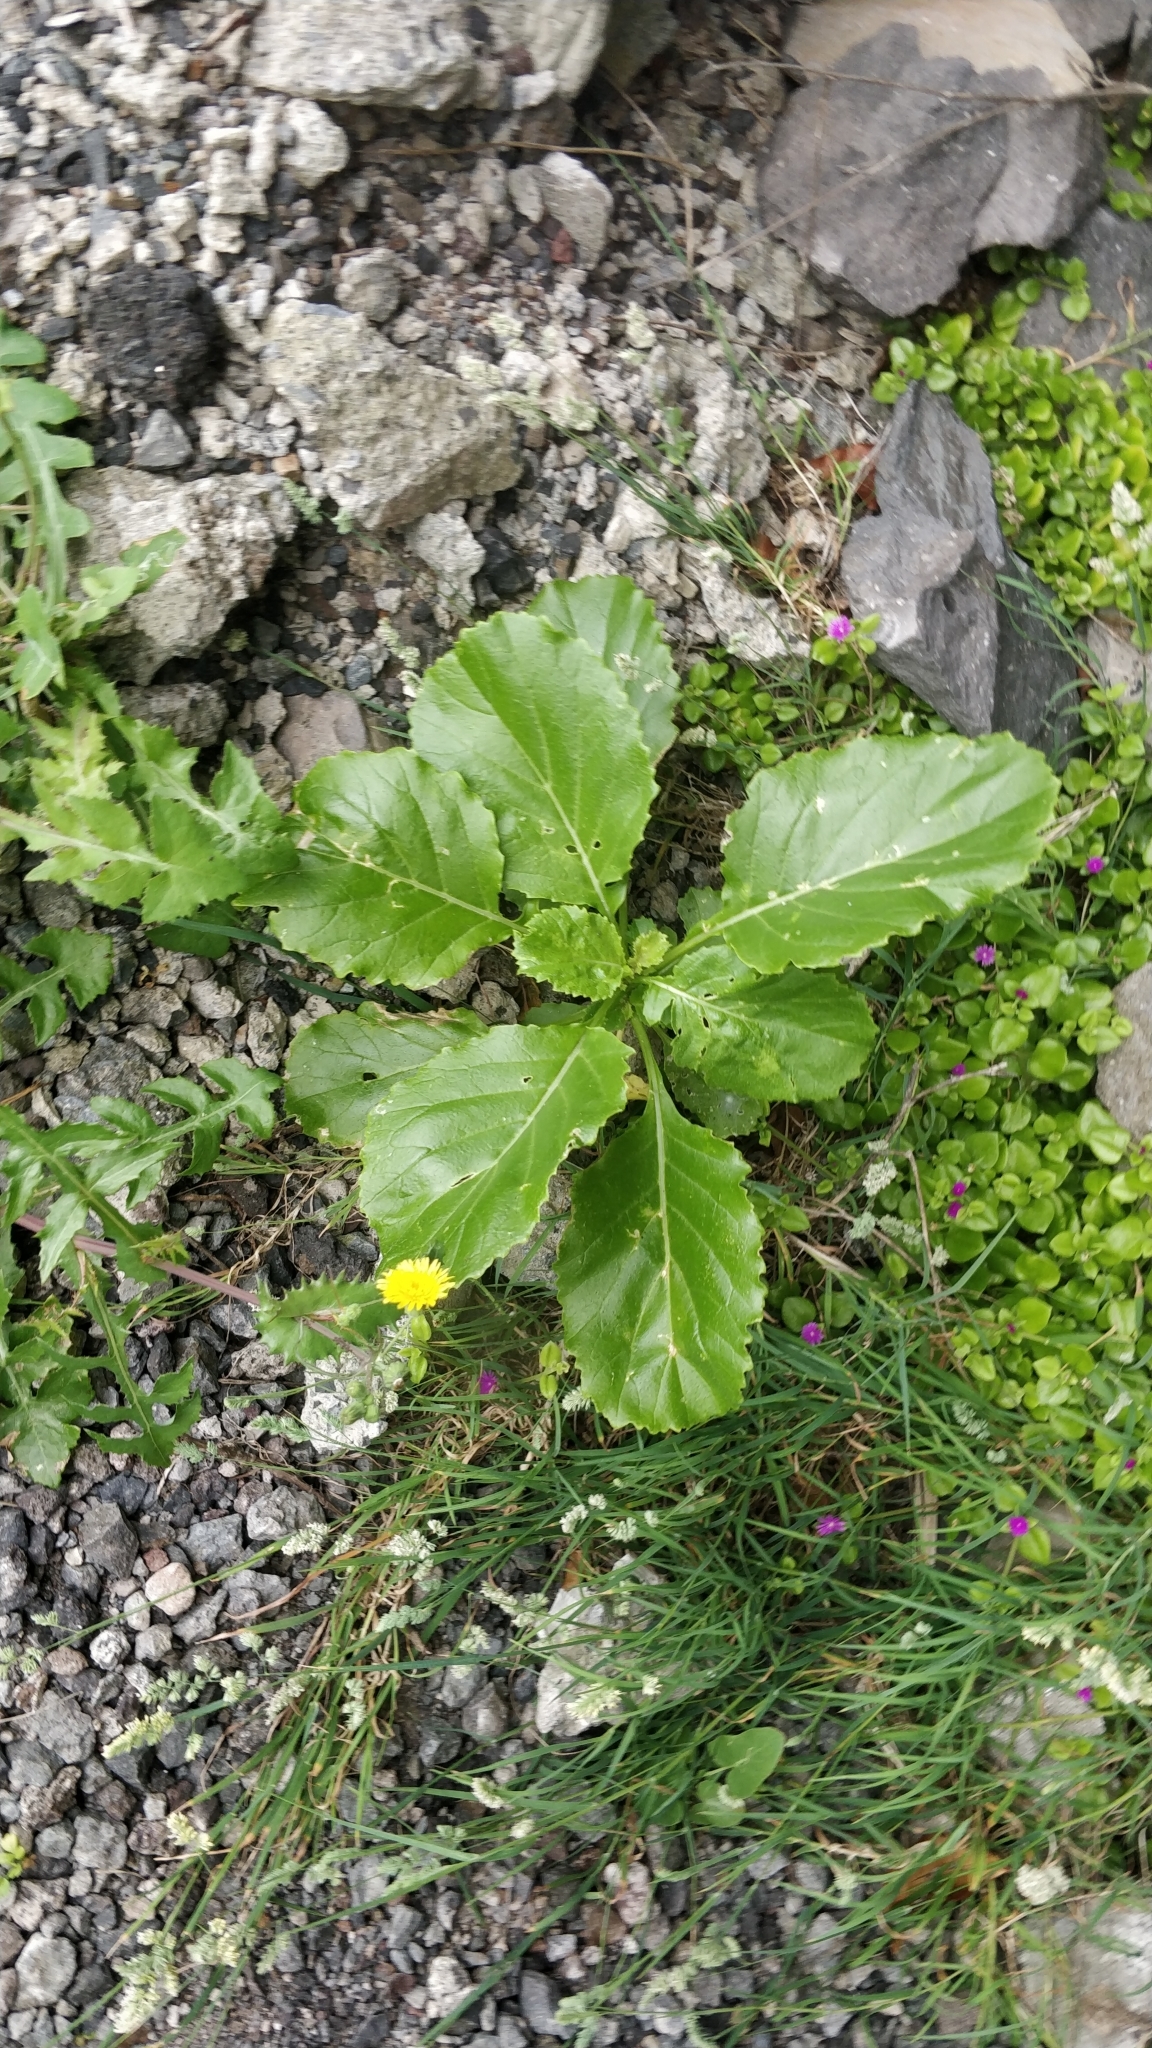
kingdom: Plantae
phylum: Tracheophyta
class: Magnoliopsida
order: Brassicales
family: Brassicaceae
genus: Sinapidendron
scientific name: Sinapidendron rupestre
